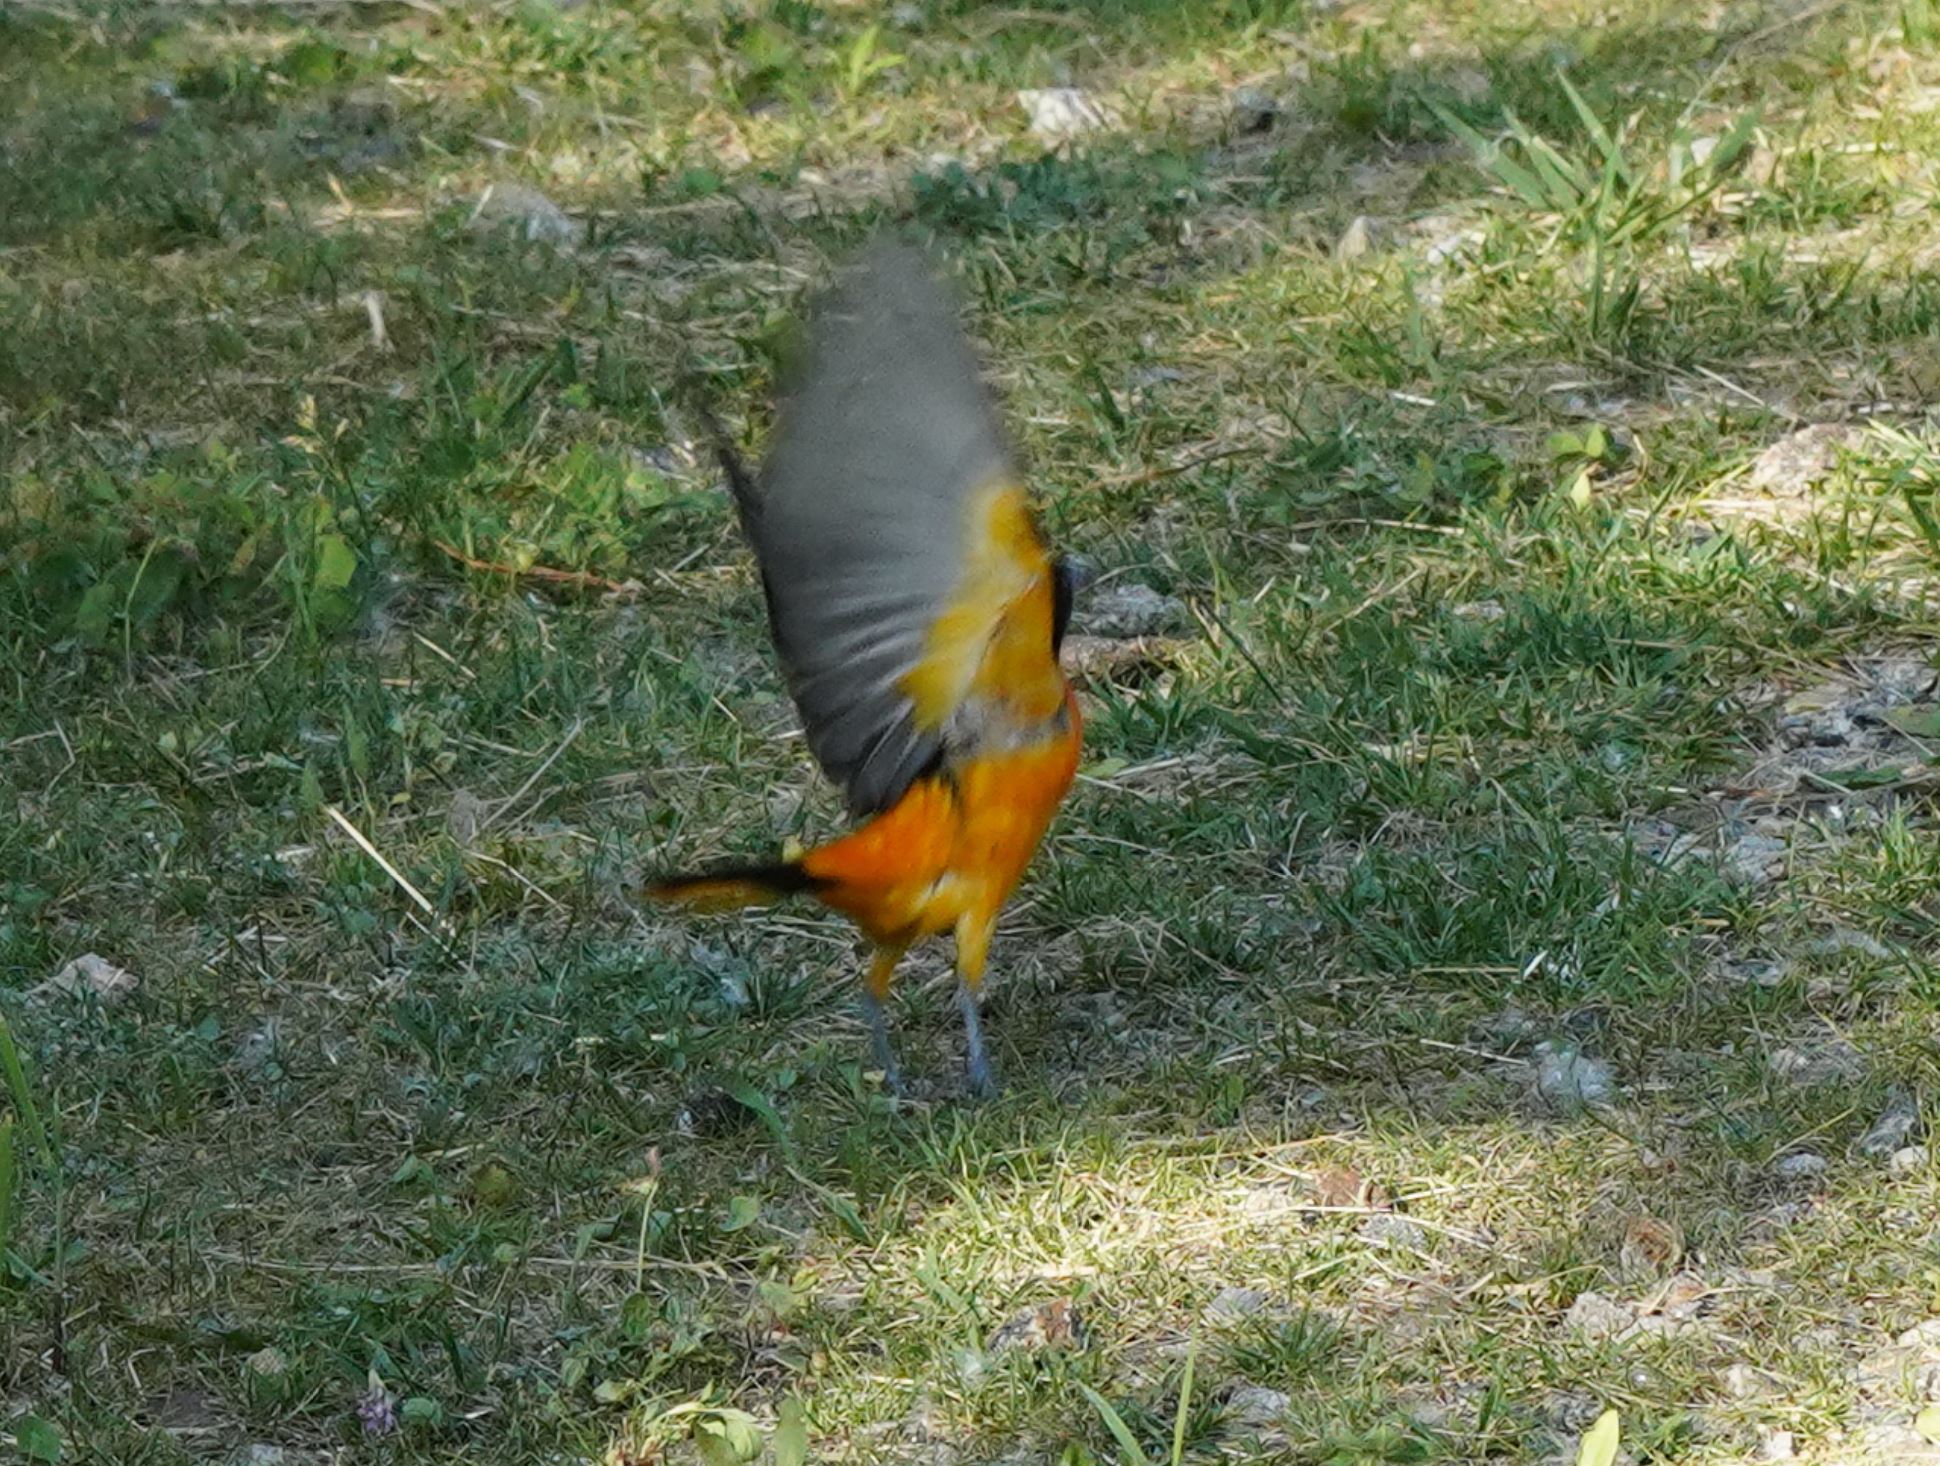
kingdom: Animalia
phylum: Chordata
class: Aves
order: Passeriformes
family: Icteridae
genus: Icterus
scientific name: Icterus galbula
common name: Baltimore oriole
